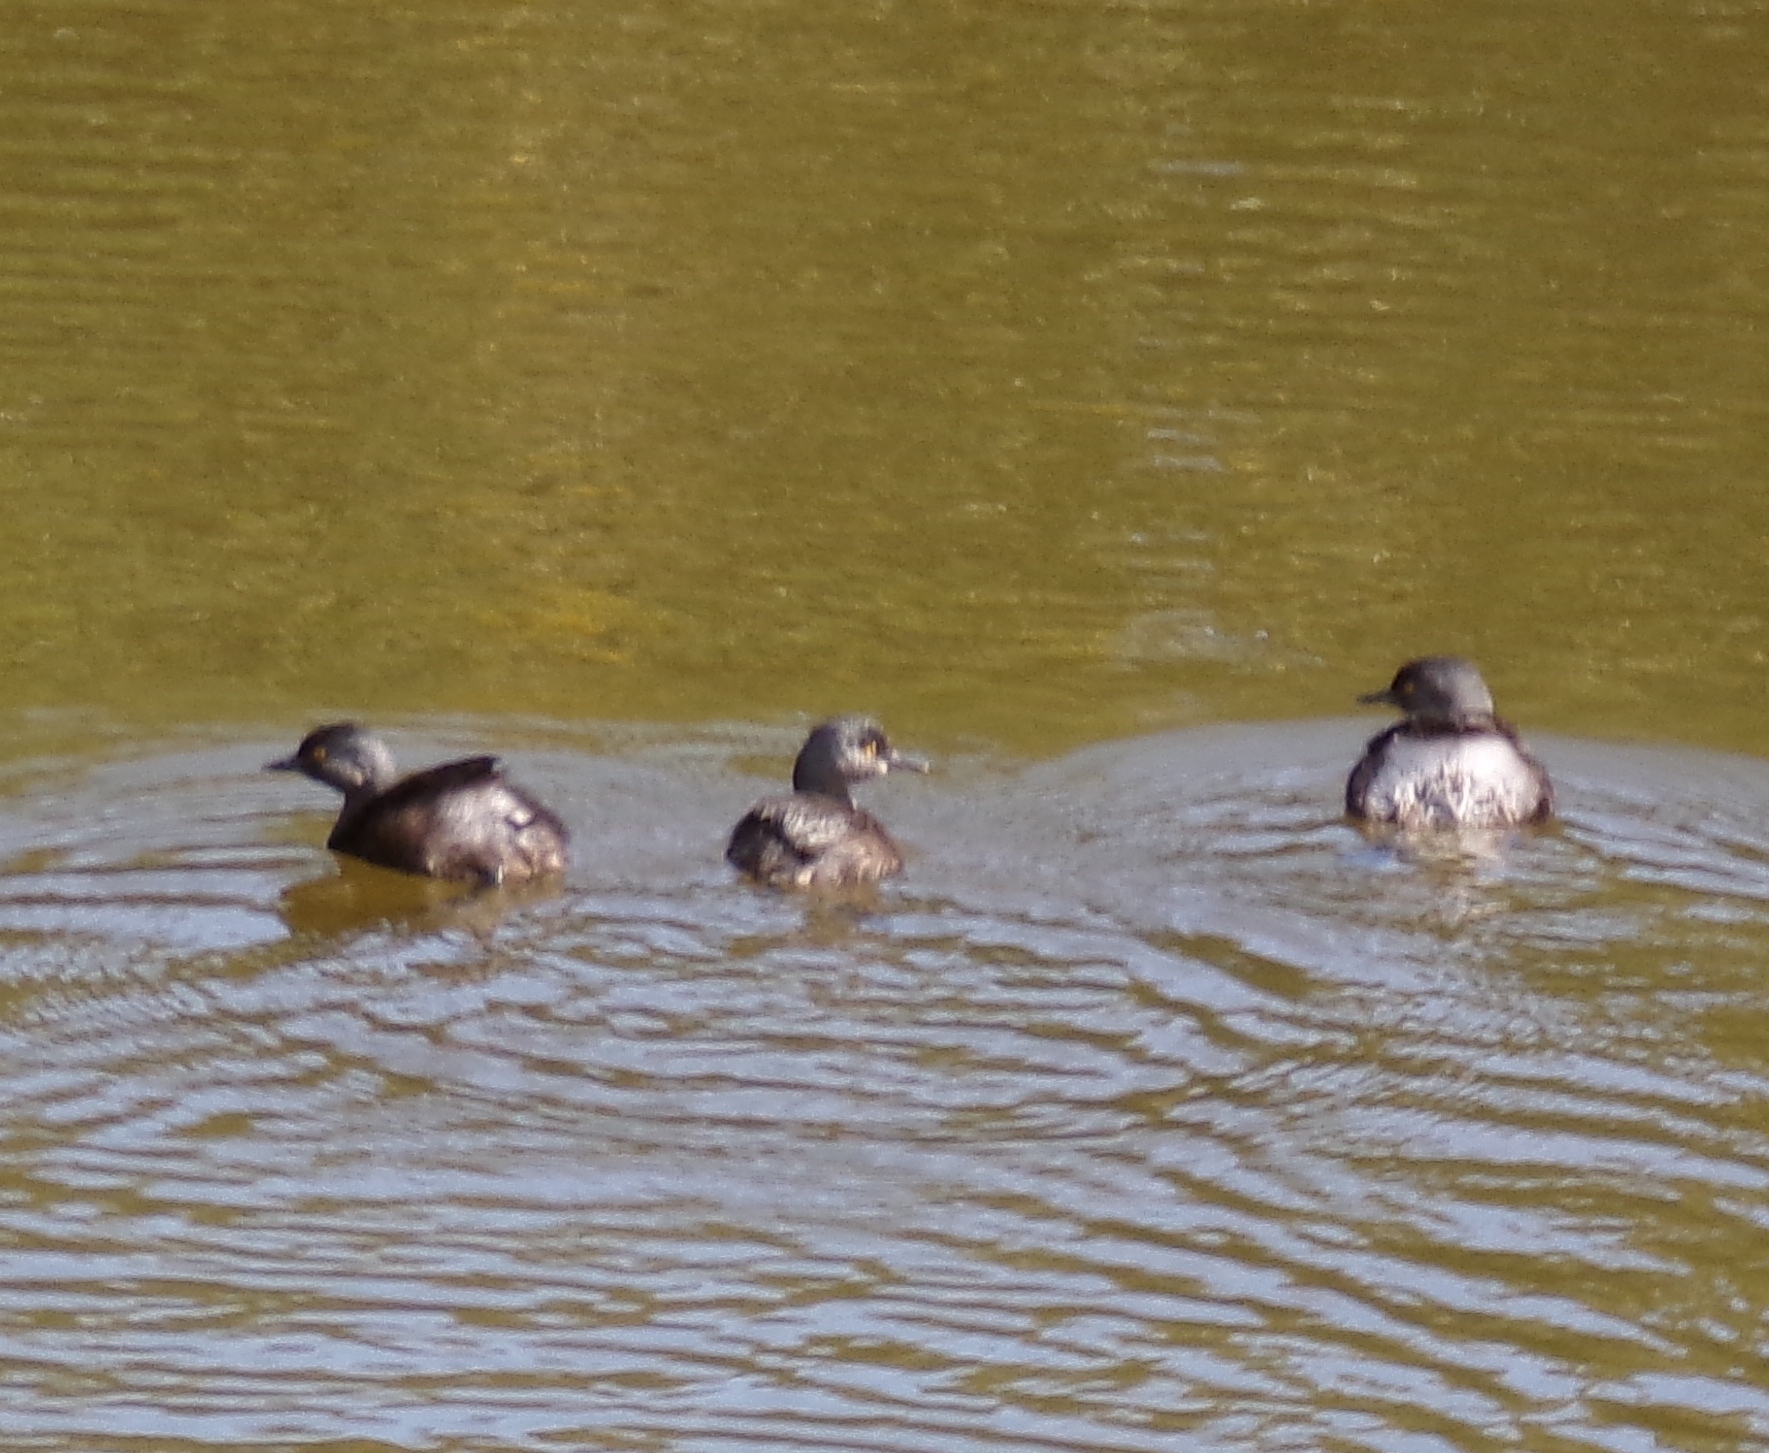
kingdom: Animalia
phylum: Chordata
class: Aves
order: Podicipediformes
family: Podicipedidae
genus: Tachybaptus
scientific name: Tachybaptus dominicus
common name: Least grebe
